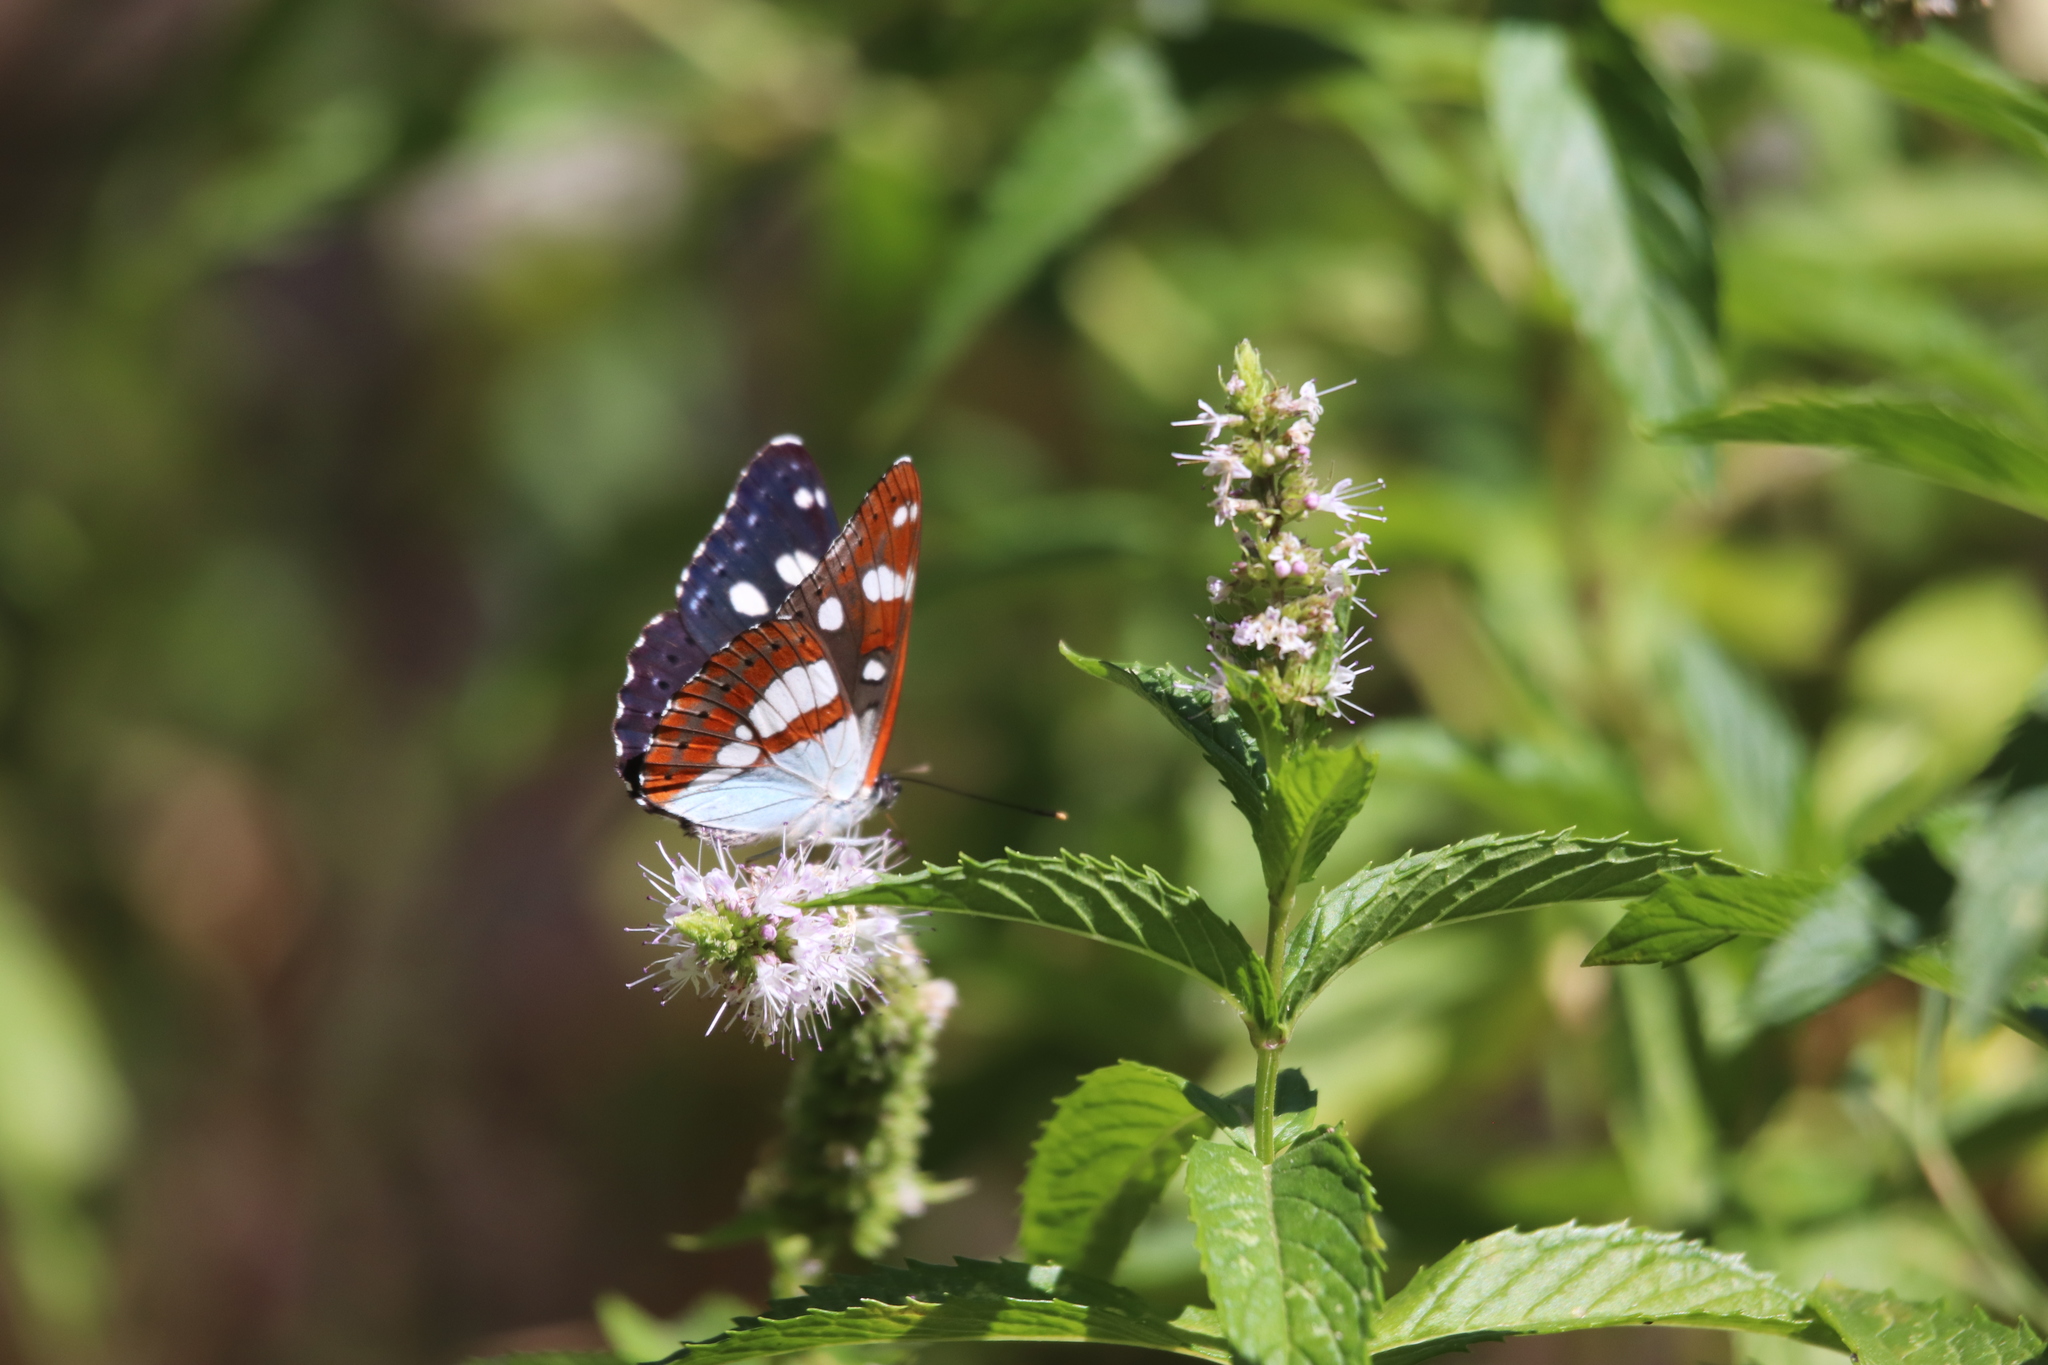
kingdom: Animalia
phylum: Arthropoda
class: Insecta
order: Lepidoptera
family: Nymphalidae
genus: Limenitis
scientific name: Limenitis reducta
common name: Southern white admiral
